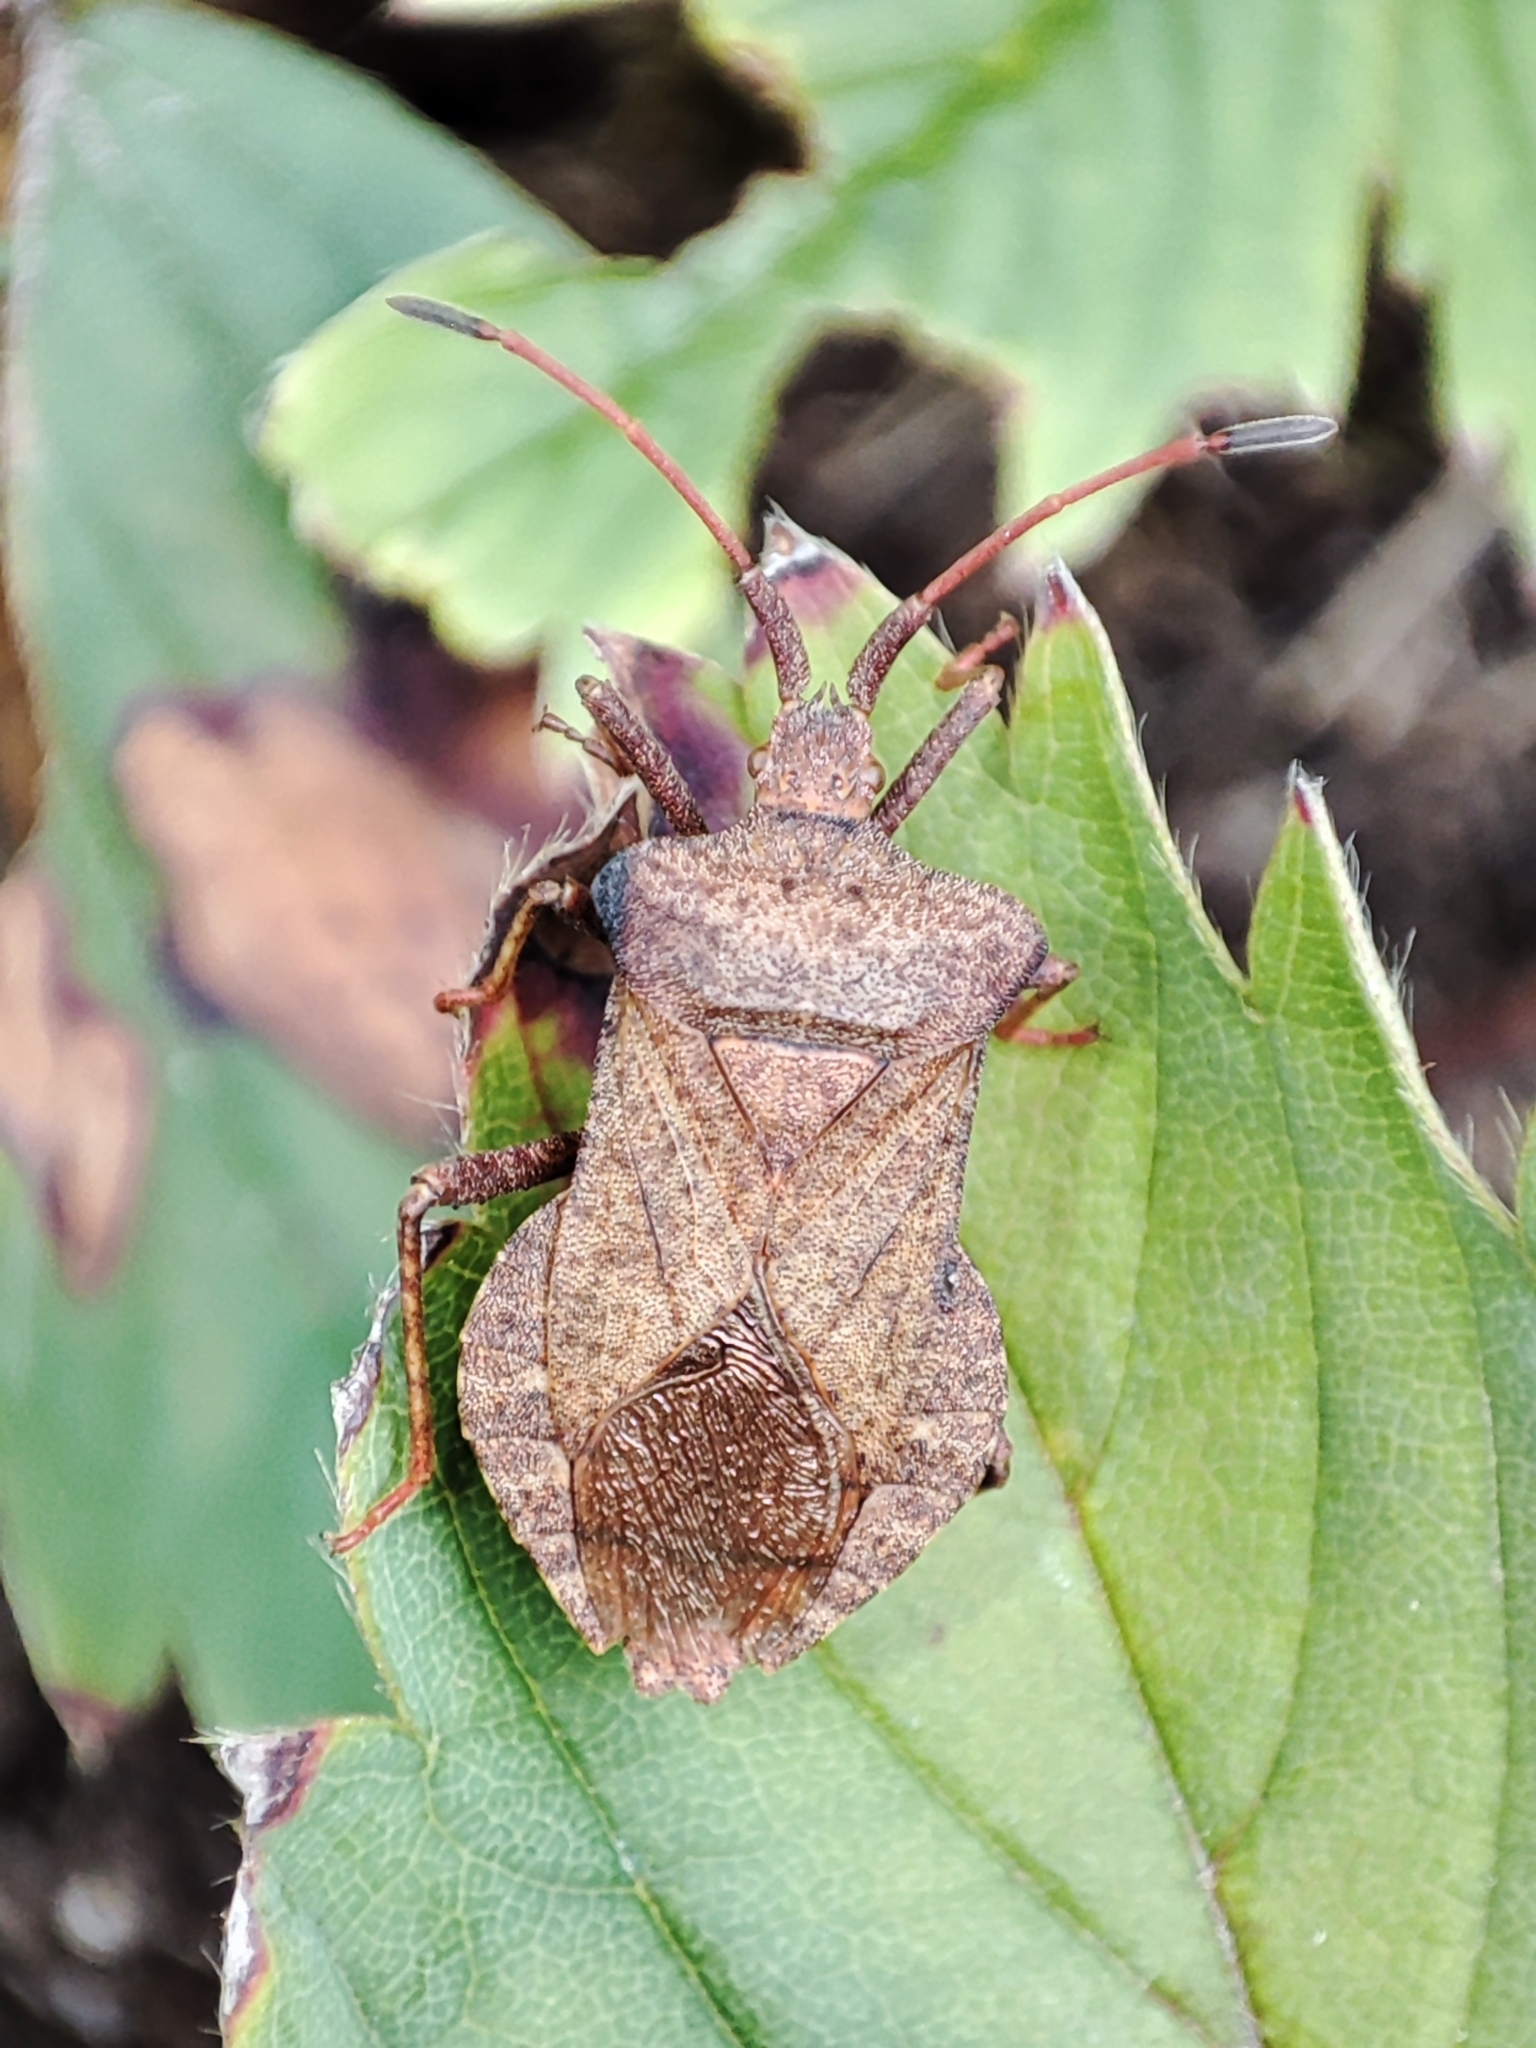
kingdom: Animalia
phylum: Arthropoda
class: Insecta
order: Hemiptera
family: Coreidae
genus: Coreus
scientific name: Coreus marginatus
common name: Dock bug
